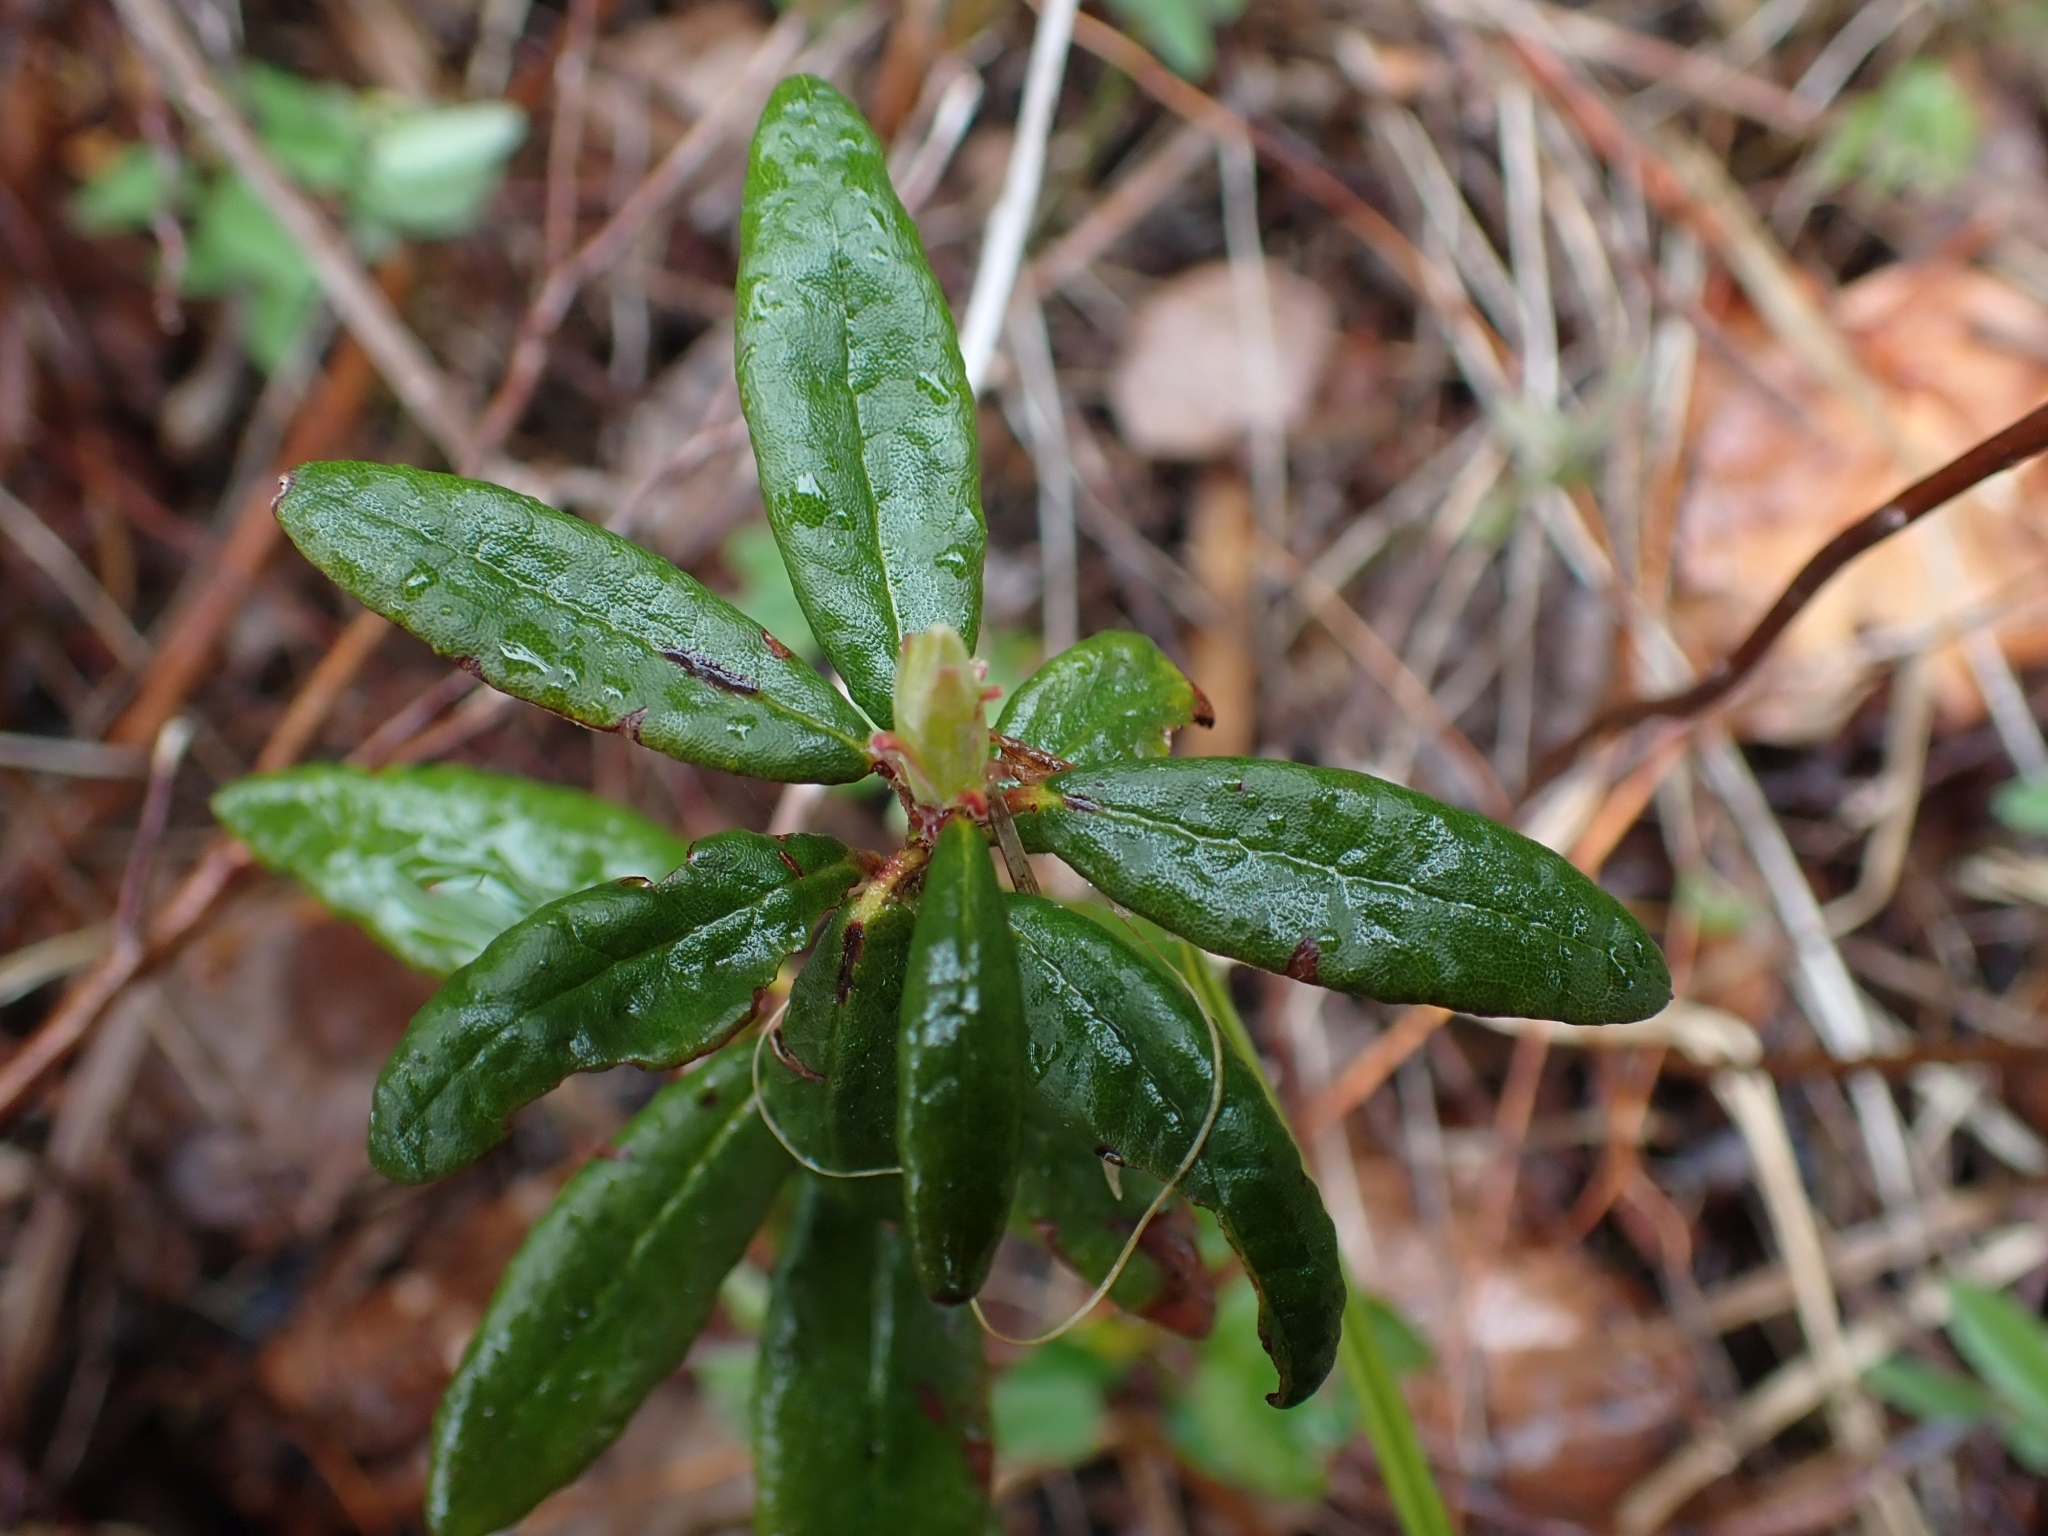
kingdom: Plantae
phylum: Tracheophyta
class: Magnoliopsida
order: Ericales
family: Ericaceae
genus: Rhododendron
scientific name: Rhododendron groenlandicum
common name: Bog labrador tea
